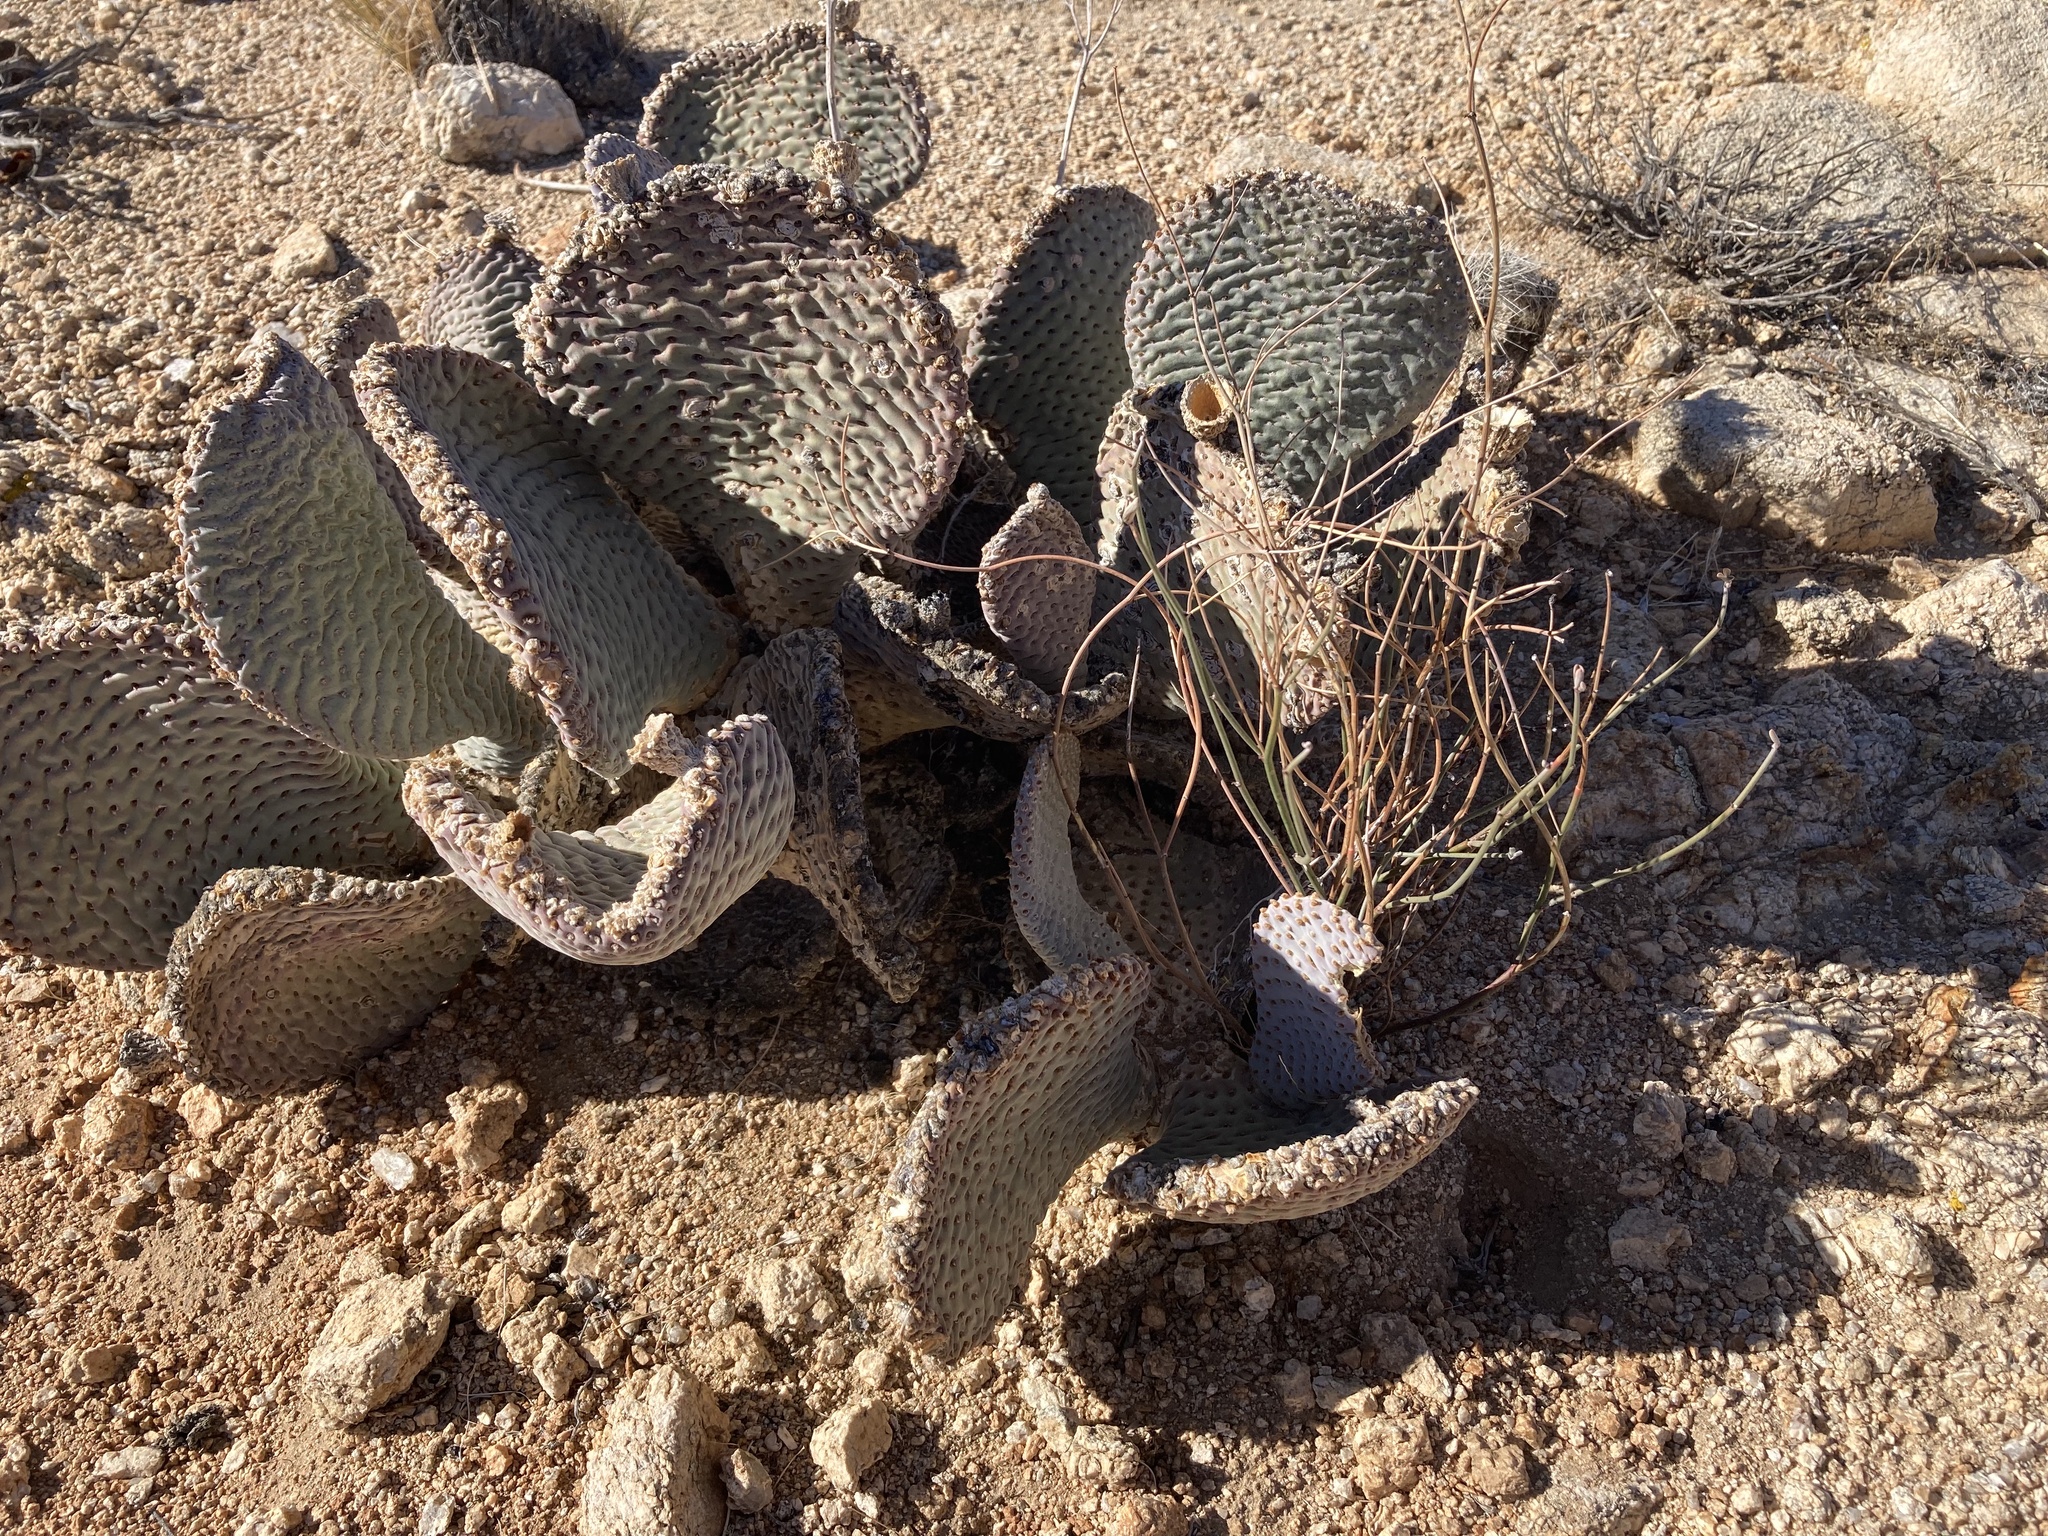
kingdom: Plantae
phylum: Tracheophyta
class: Magnoliopsida
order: Caryophyllales
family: Cactaceae
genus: Opuntia
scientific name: Opuntia basilaris
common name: Beavertail prickly-pear
